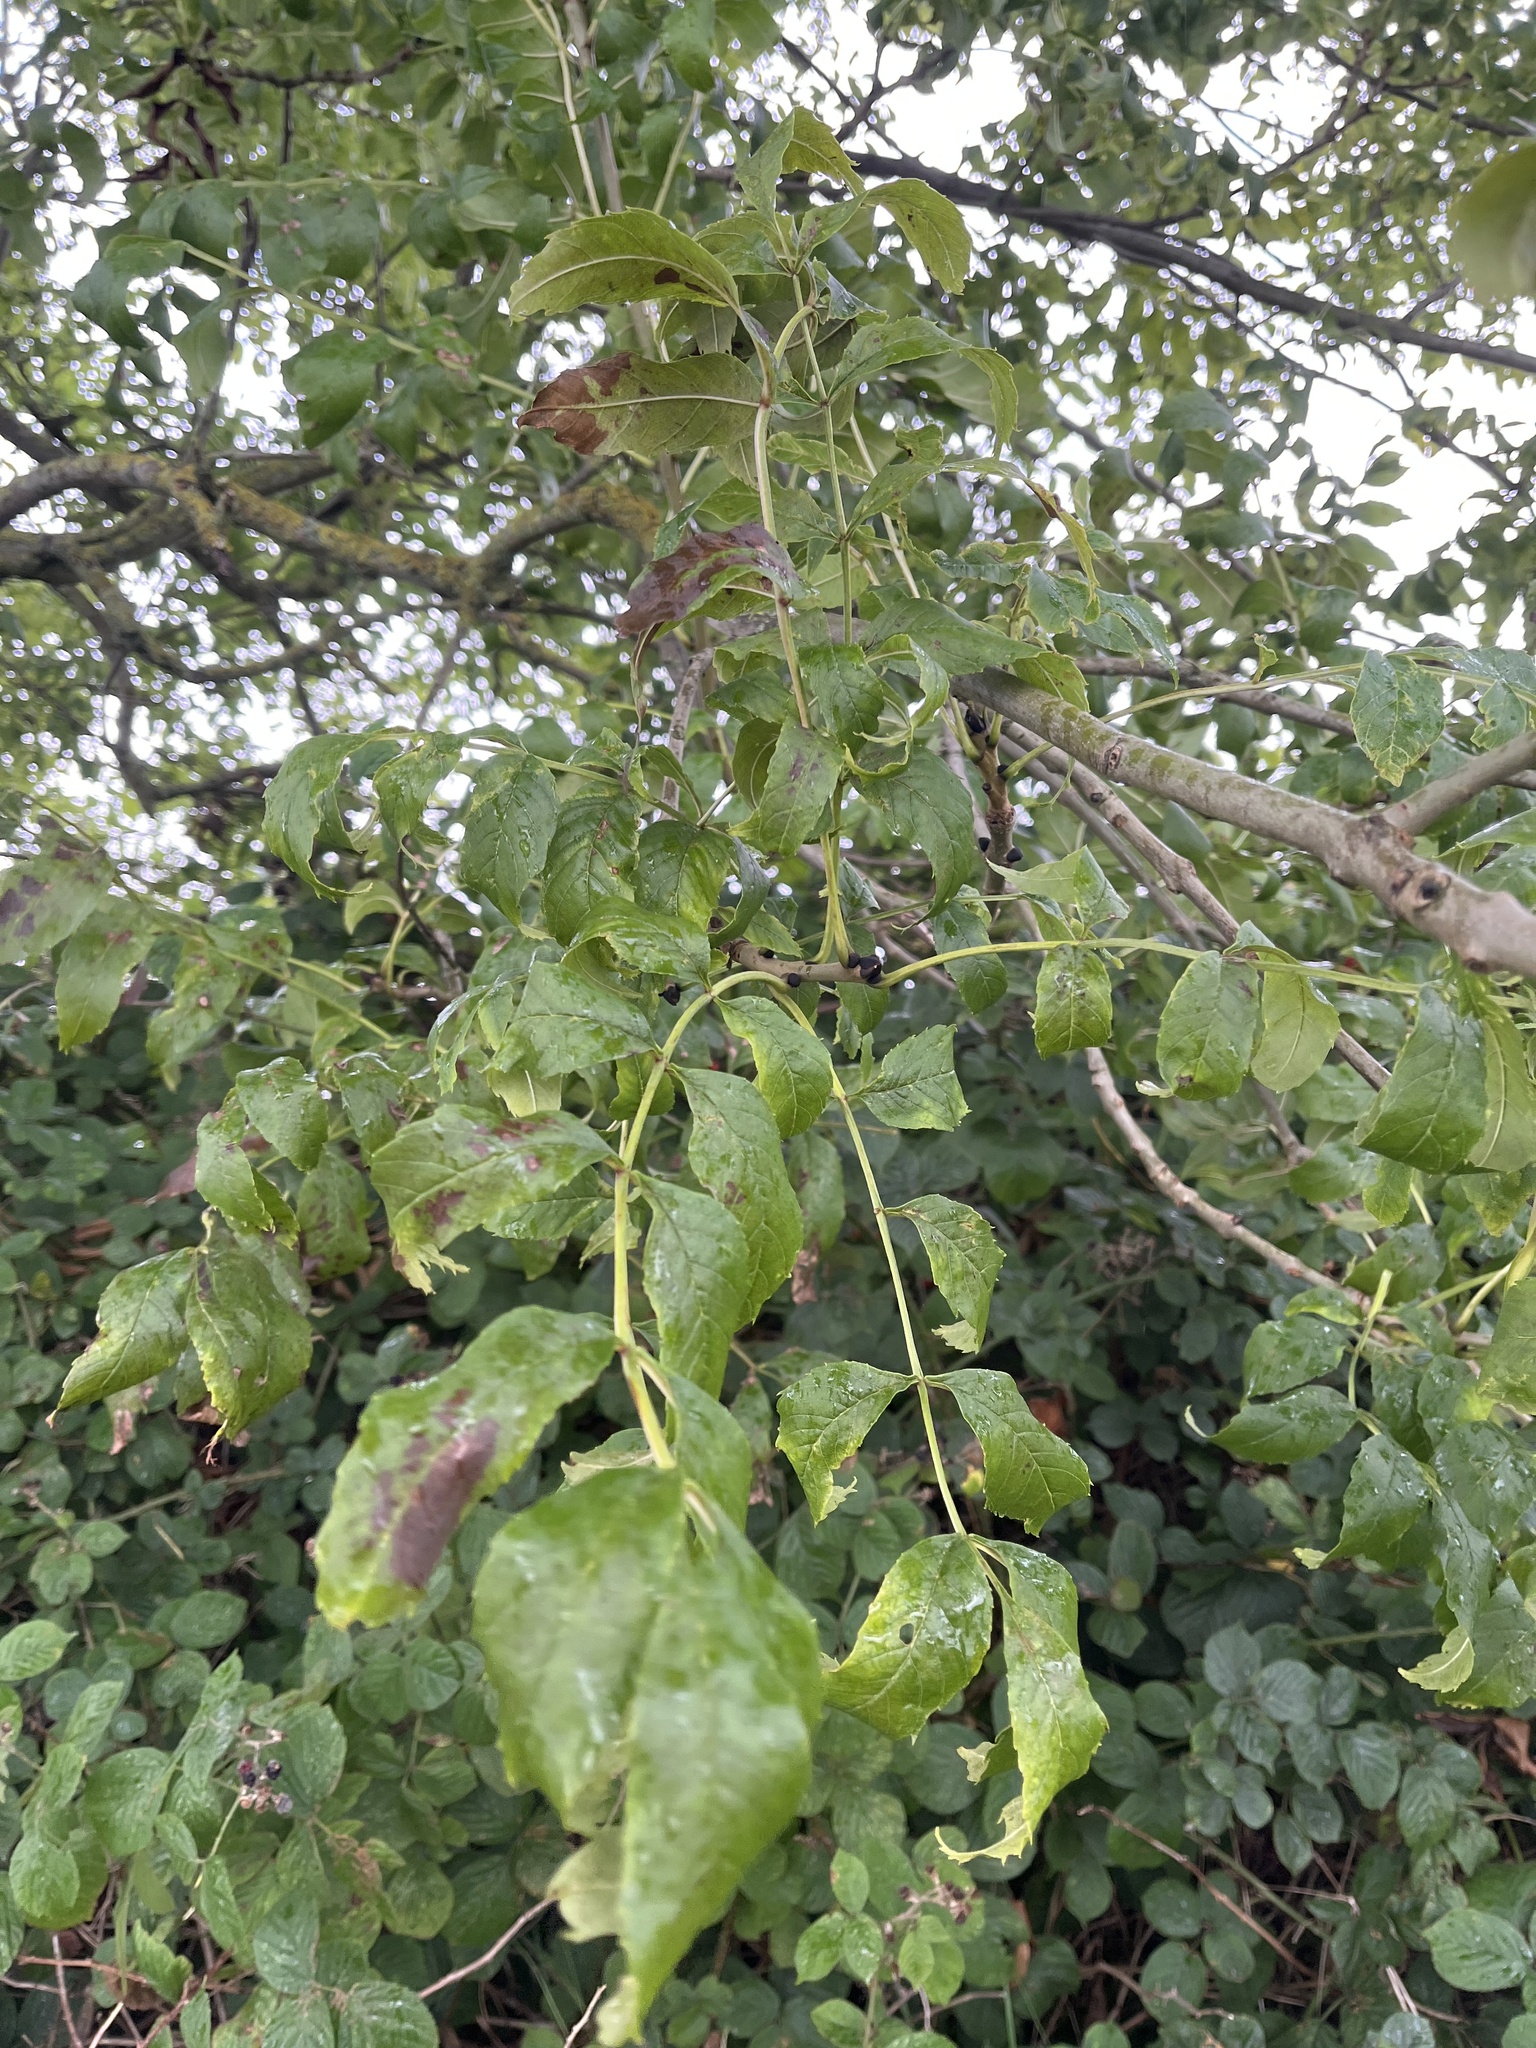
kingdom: Plantae
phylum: Tracheophyta
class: Magnoliopsida
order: Lamiales
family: Oleaceae
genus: Fraxinus
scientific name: Fraxinus excelsior
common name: European ash
